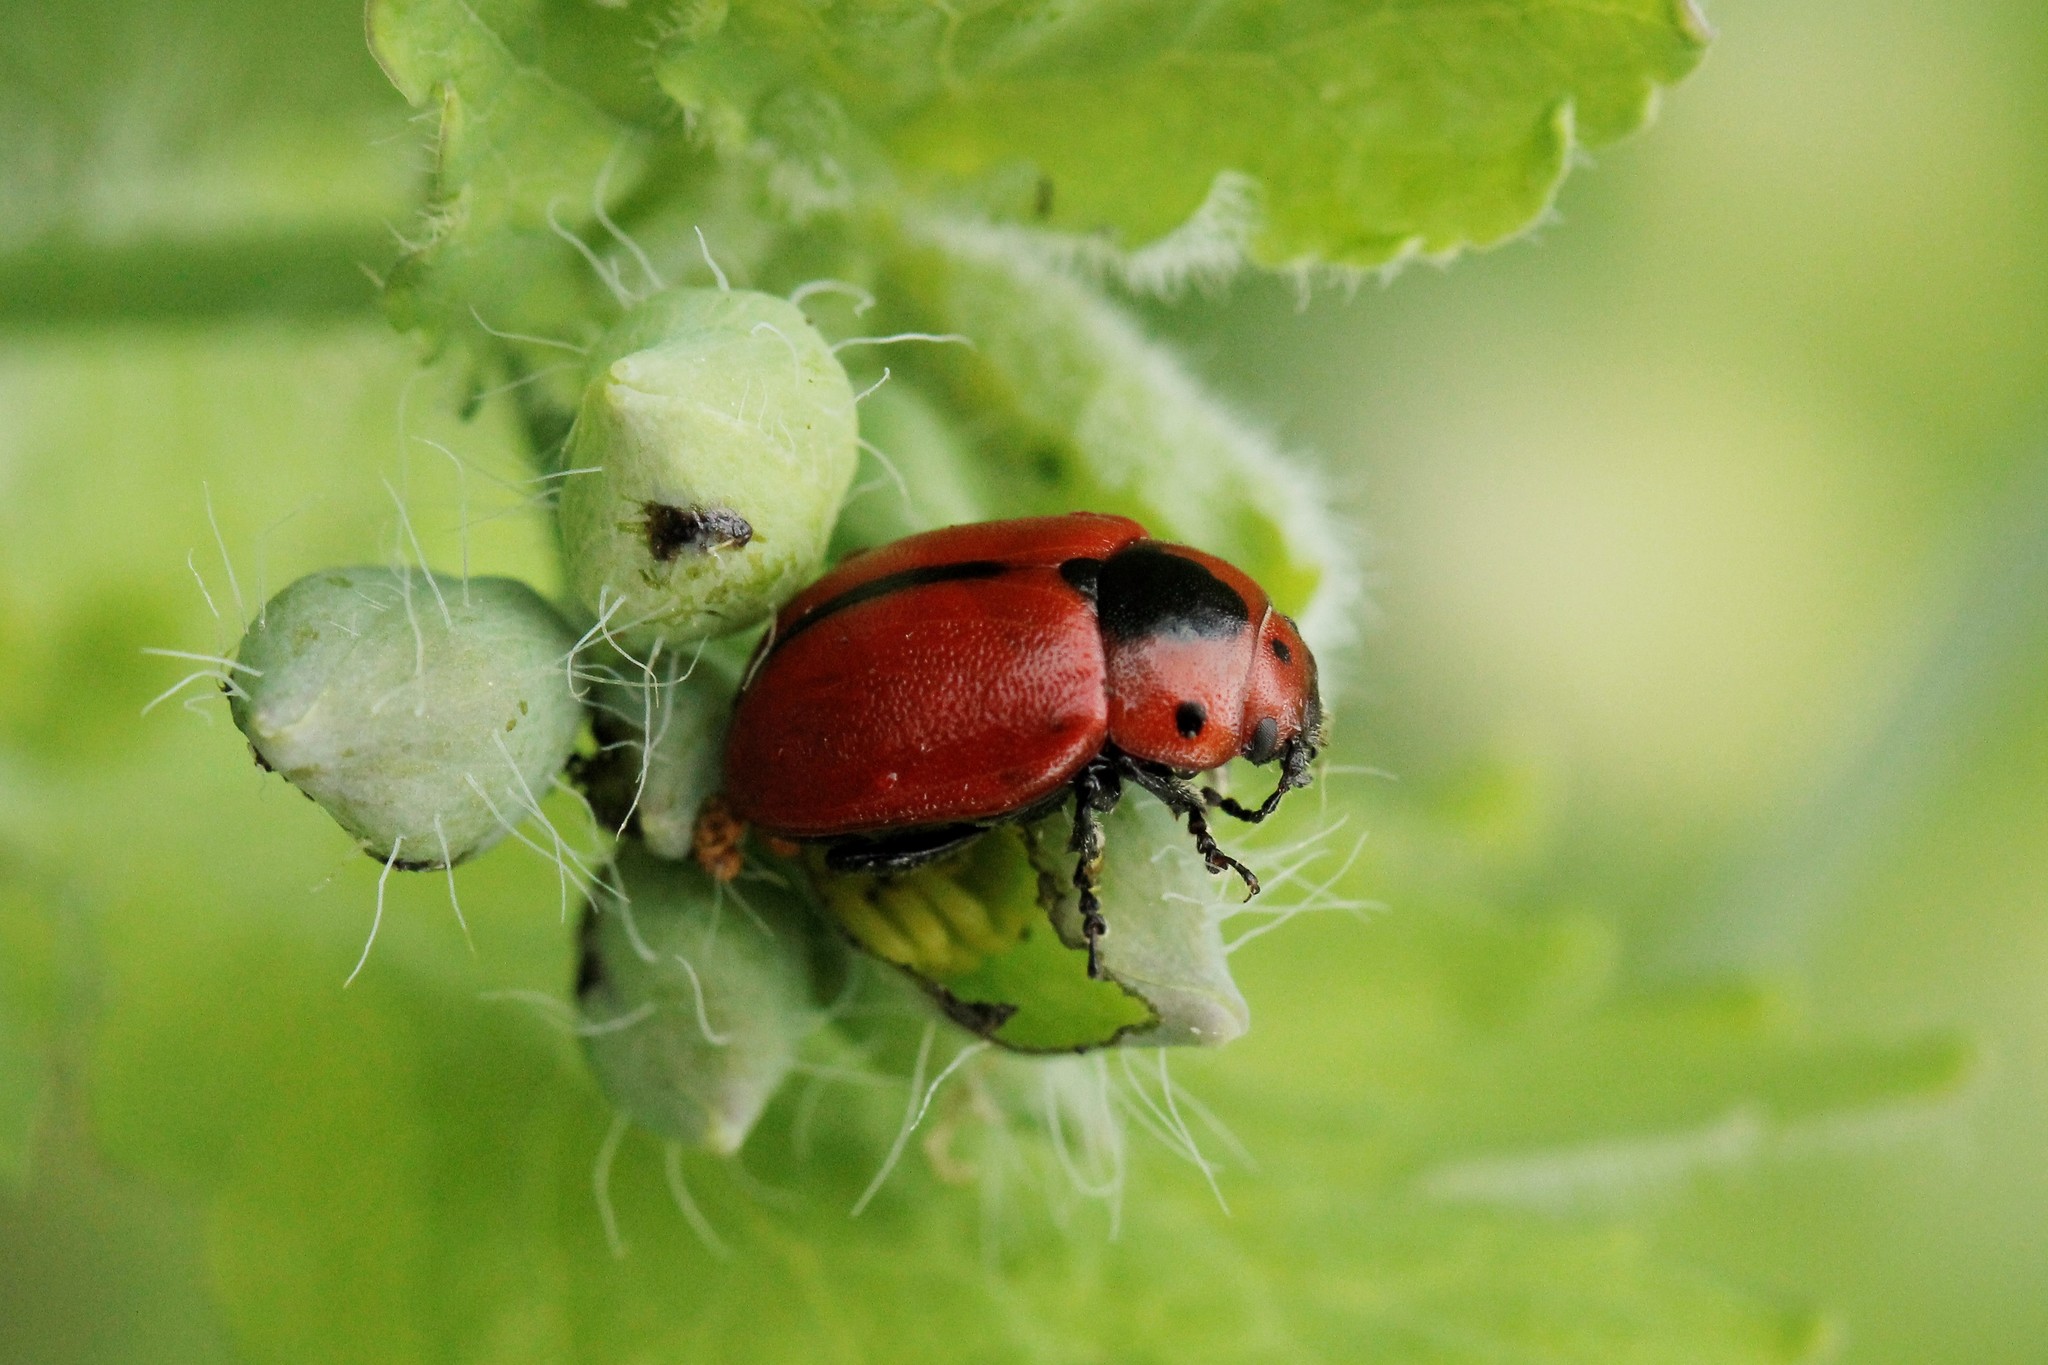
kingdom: Animalia
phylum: Arthropoda
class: Insecta
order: Coleoptera
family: Chrysomelidae
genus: Entomoscelis
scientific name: Entomoscelis adonidis
